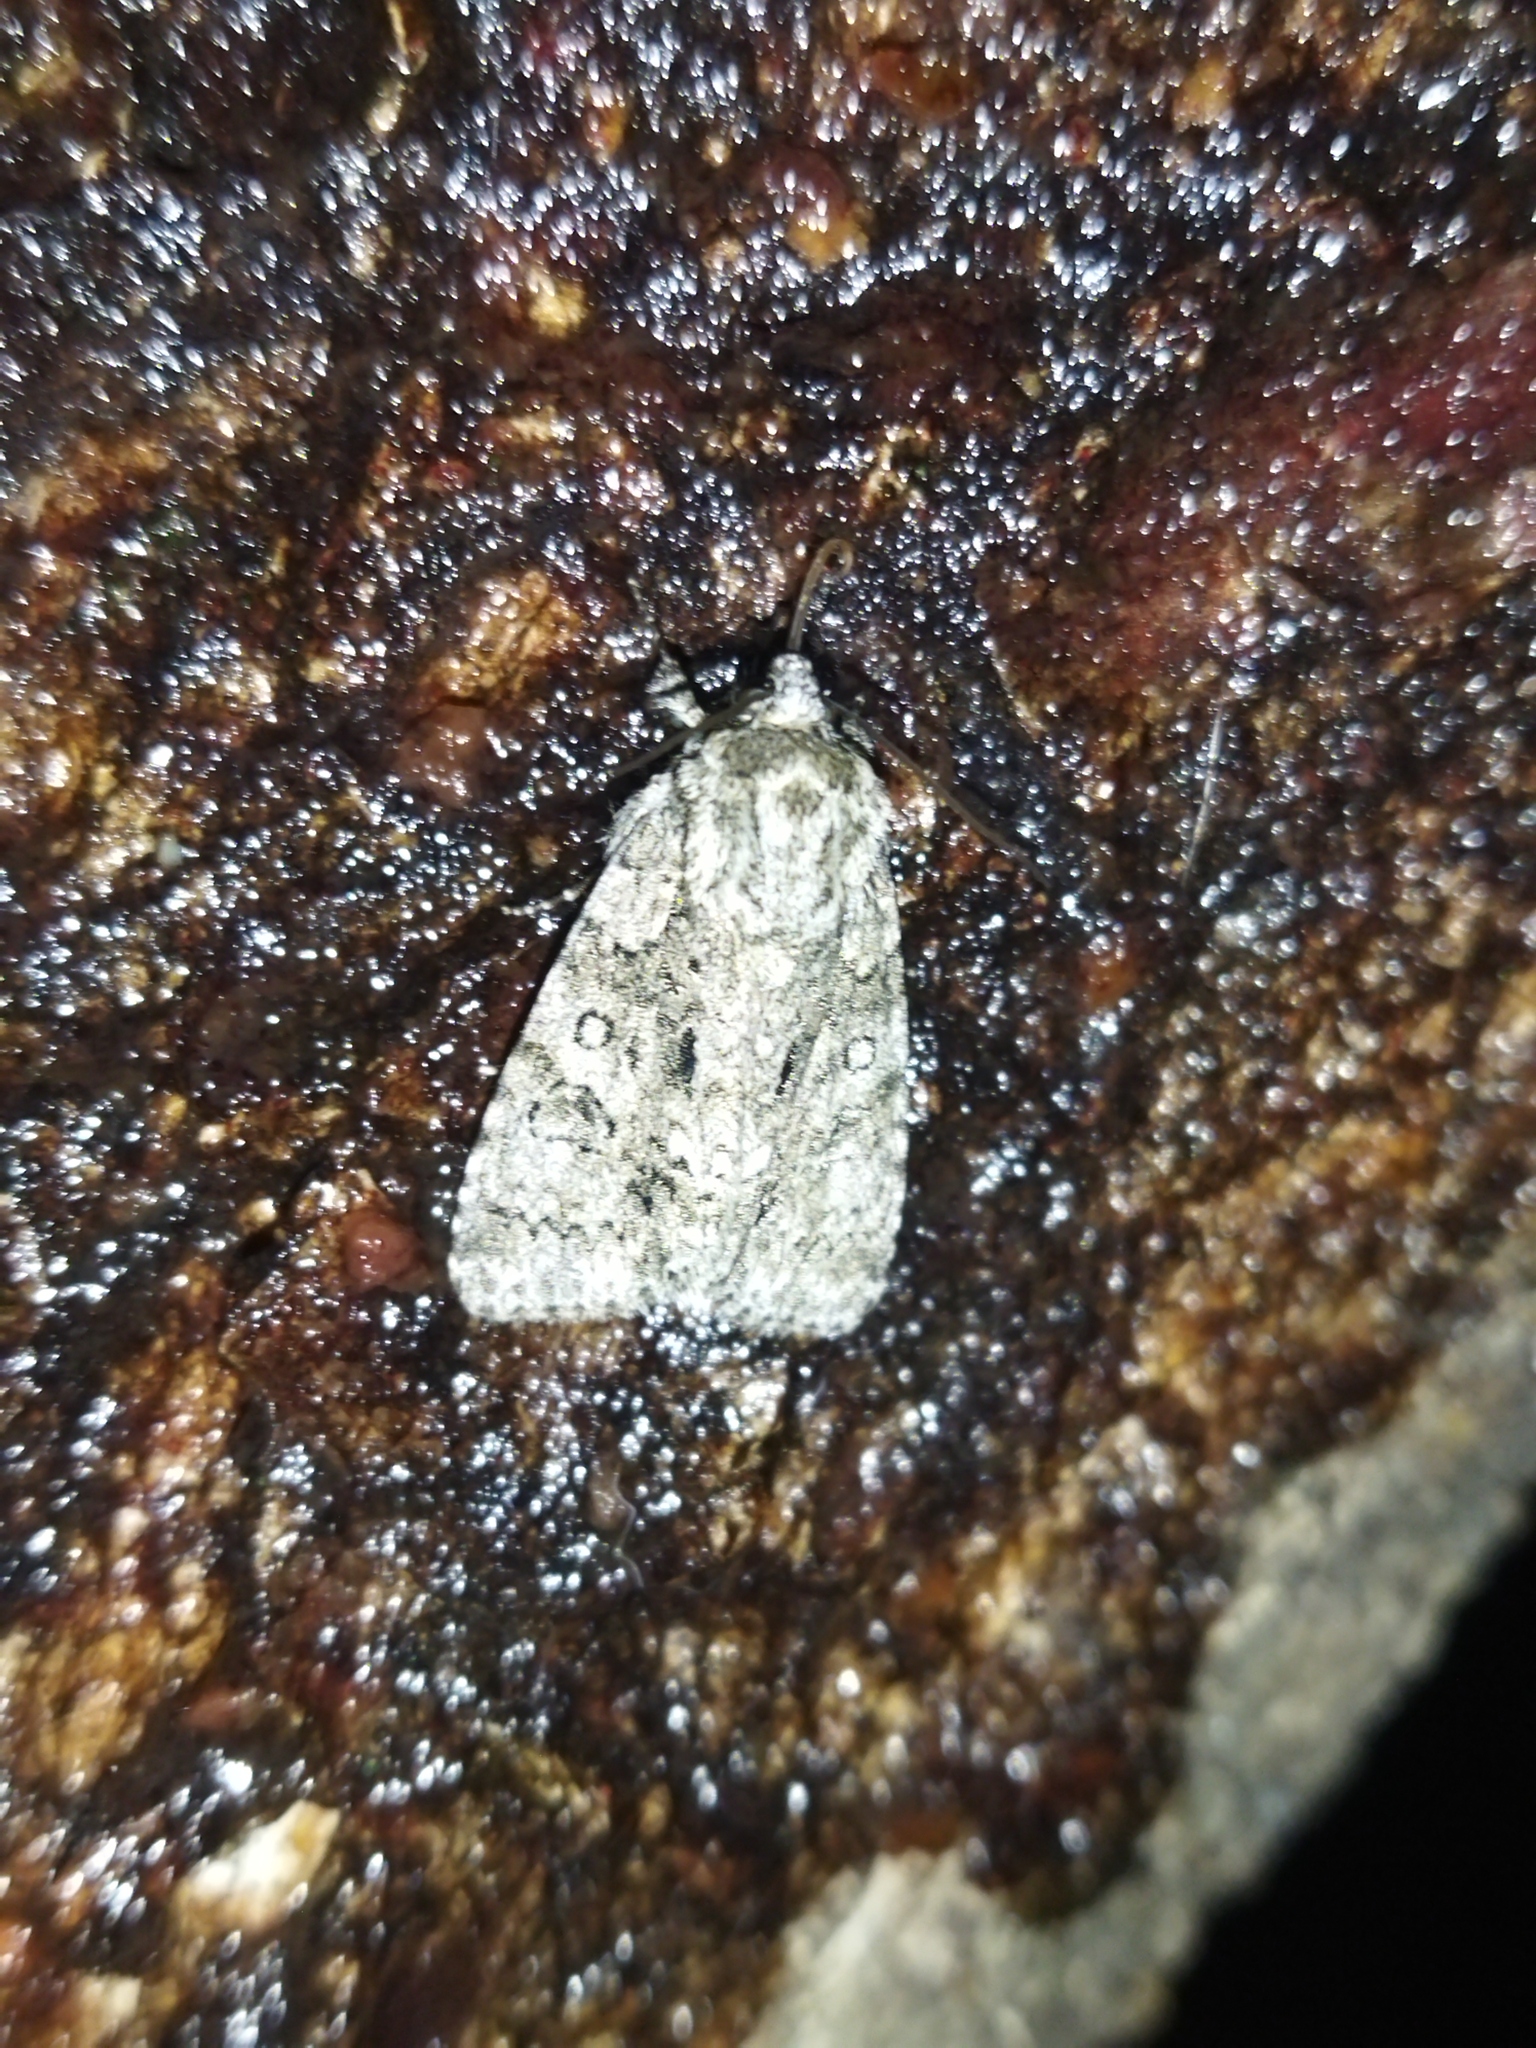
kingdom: Animalia
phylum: Arthropoda
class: Insecta
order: Lepidoptera
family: Noctuidae
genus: Acronicta
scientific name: Acronicta rumicis
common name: Knot grass
